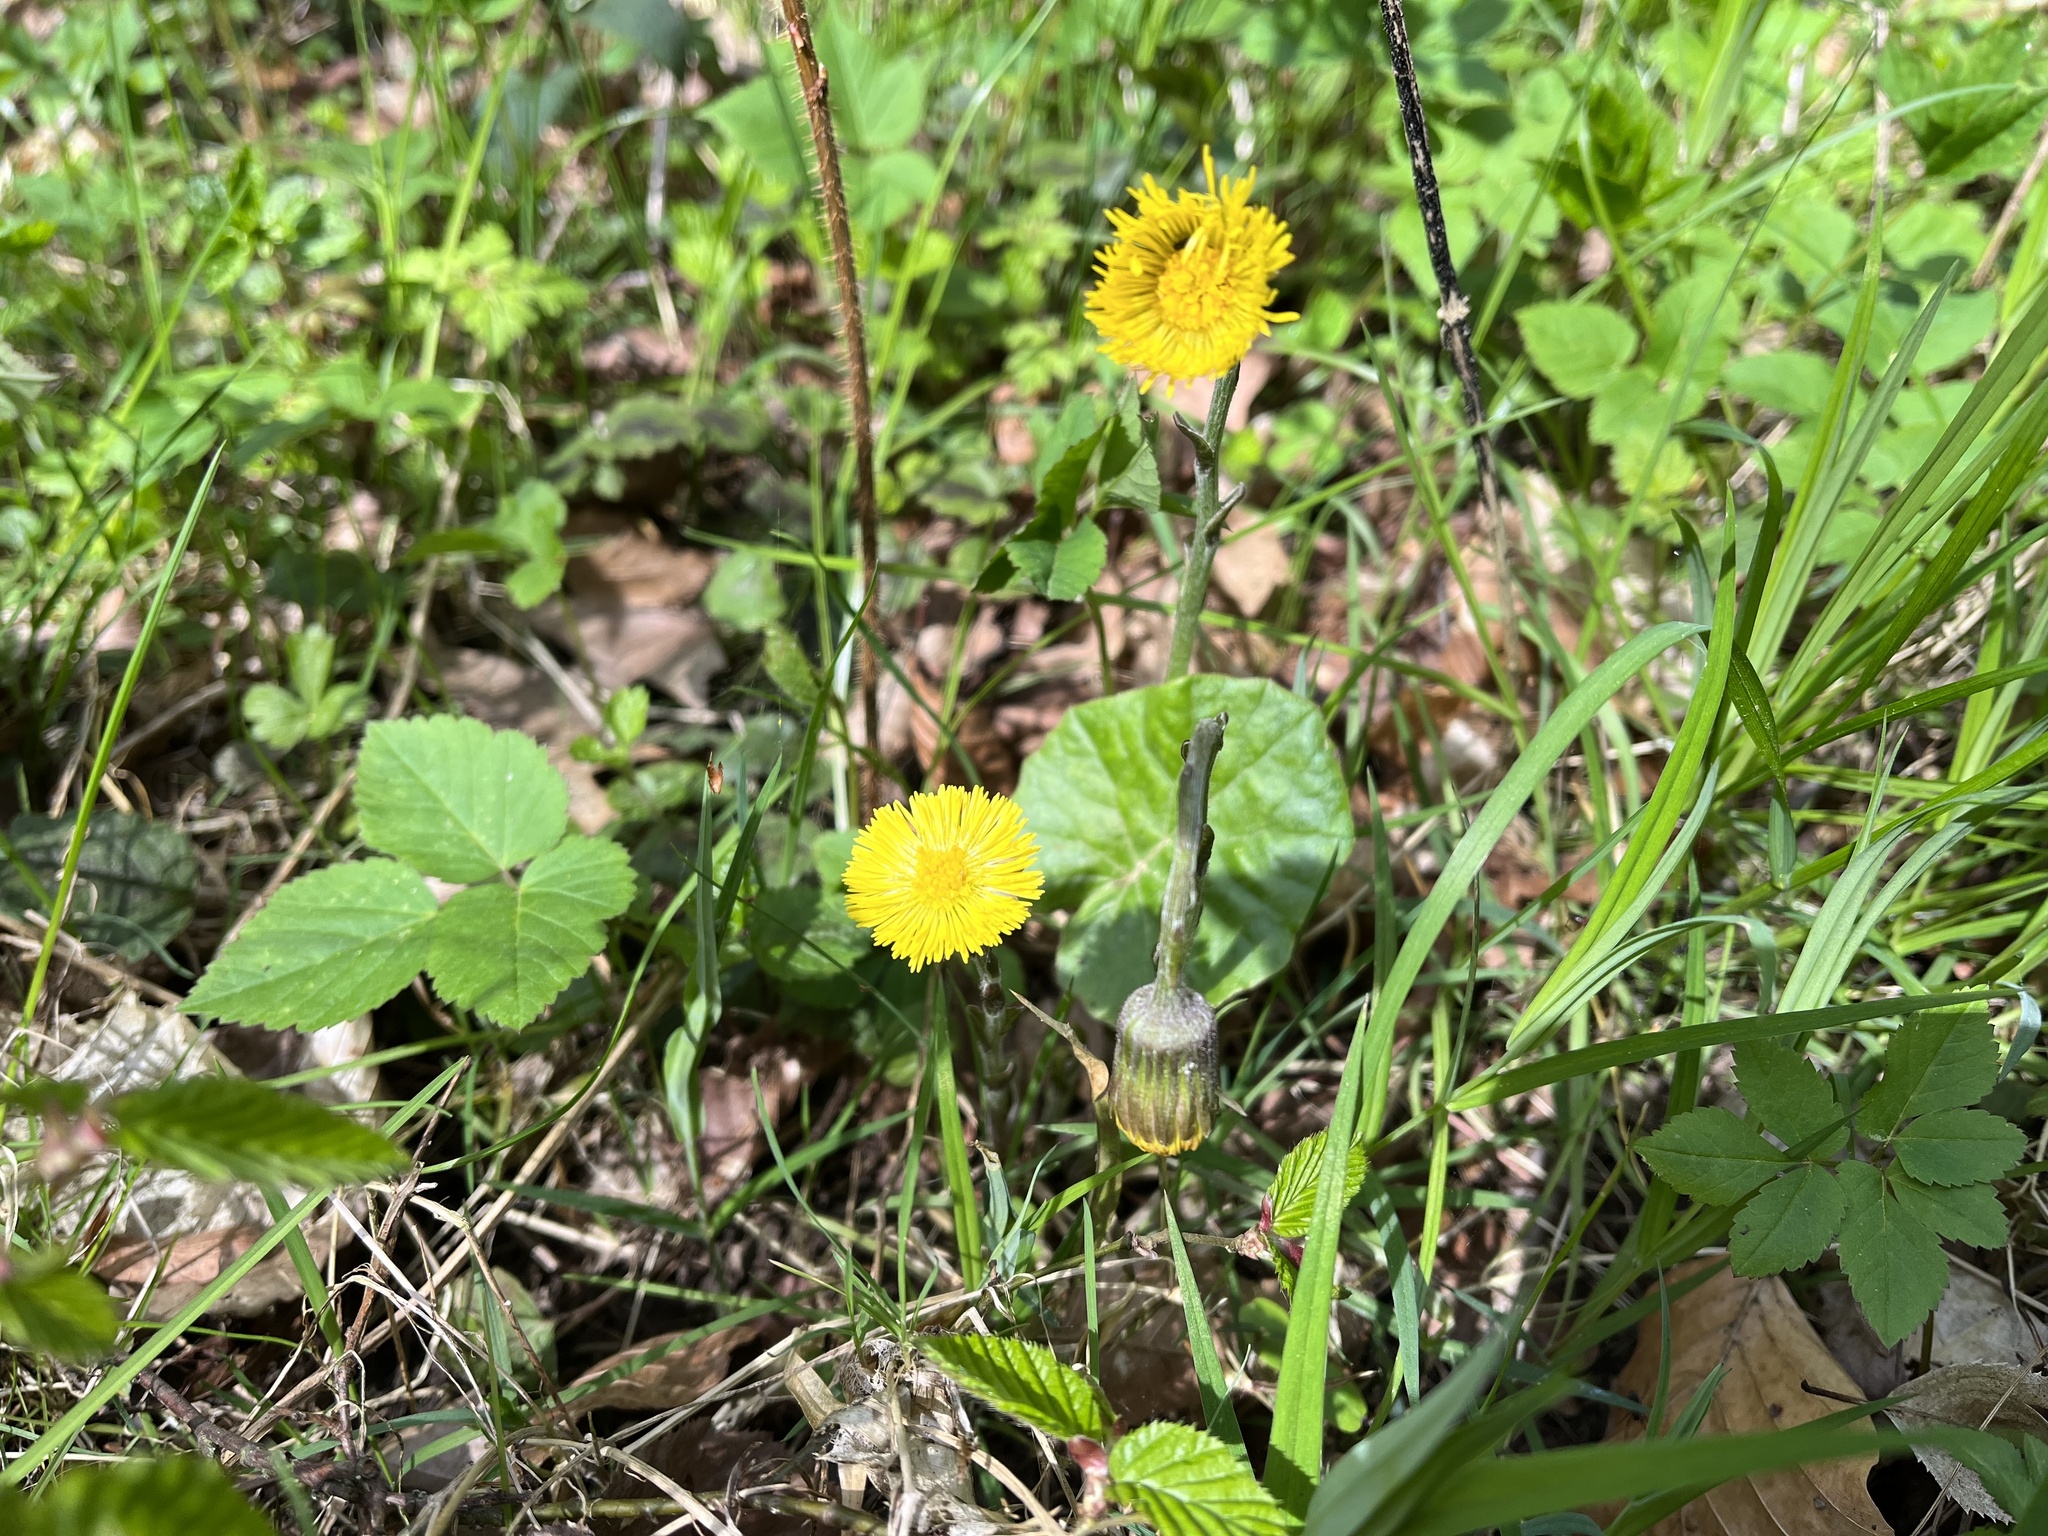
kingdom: Plantae
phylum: Tracheophyta
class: Magnoliopsida
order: Asterales
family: Asteraceae
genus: Tussilago
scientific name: Tussilago farfara
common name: Coltsfoot
